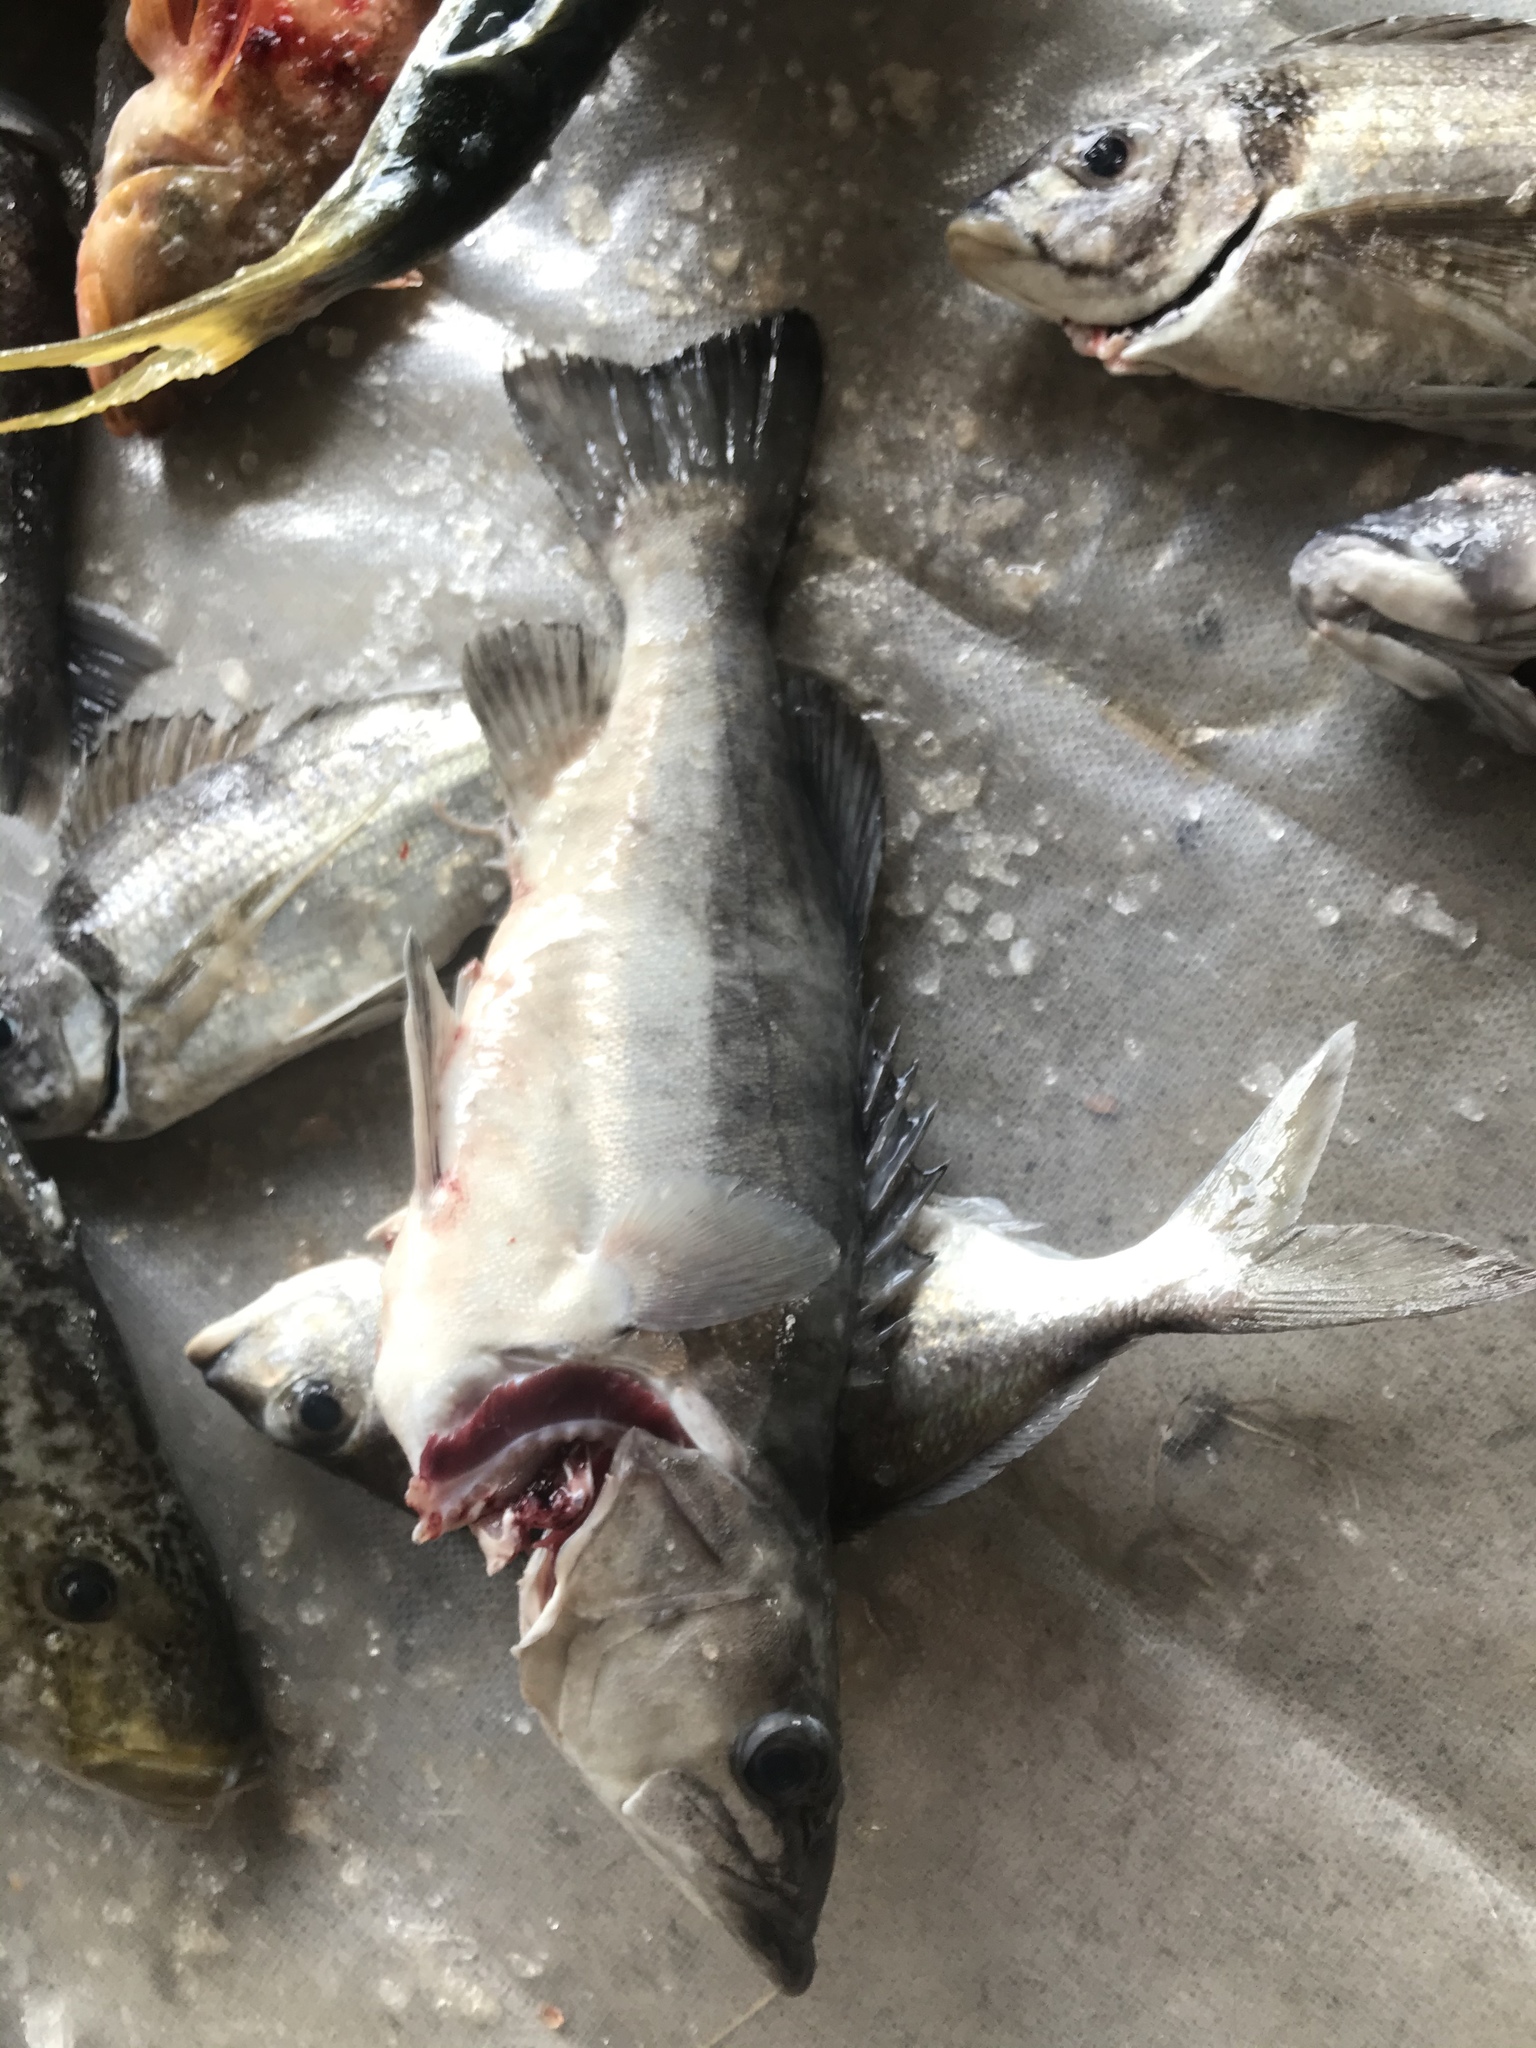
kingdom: Animalia
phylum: Chordata
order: Perciformes
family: Polyprionidae
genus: Polyprion
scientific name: Polyprion oxygeneios
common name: Hapuka
